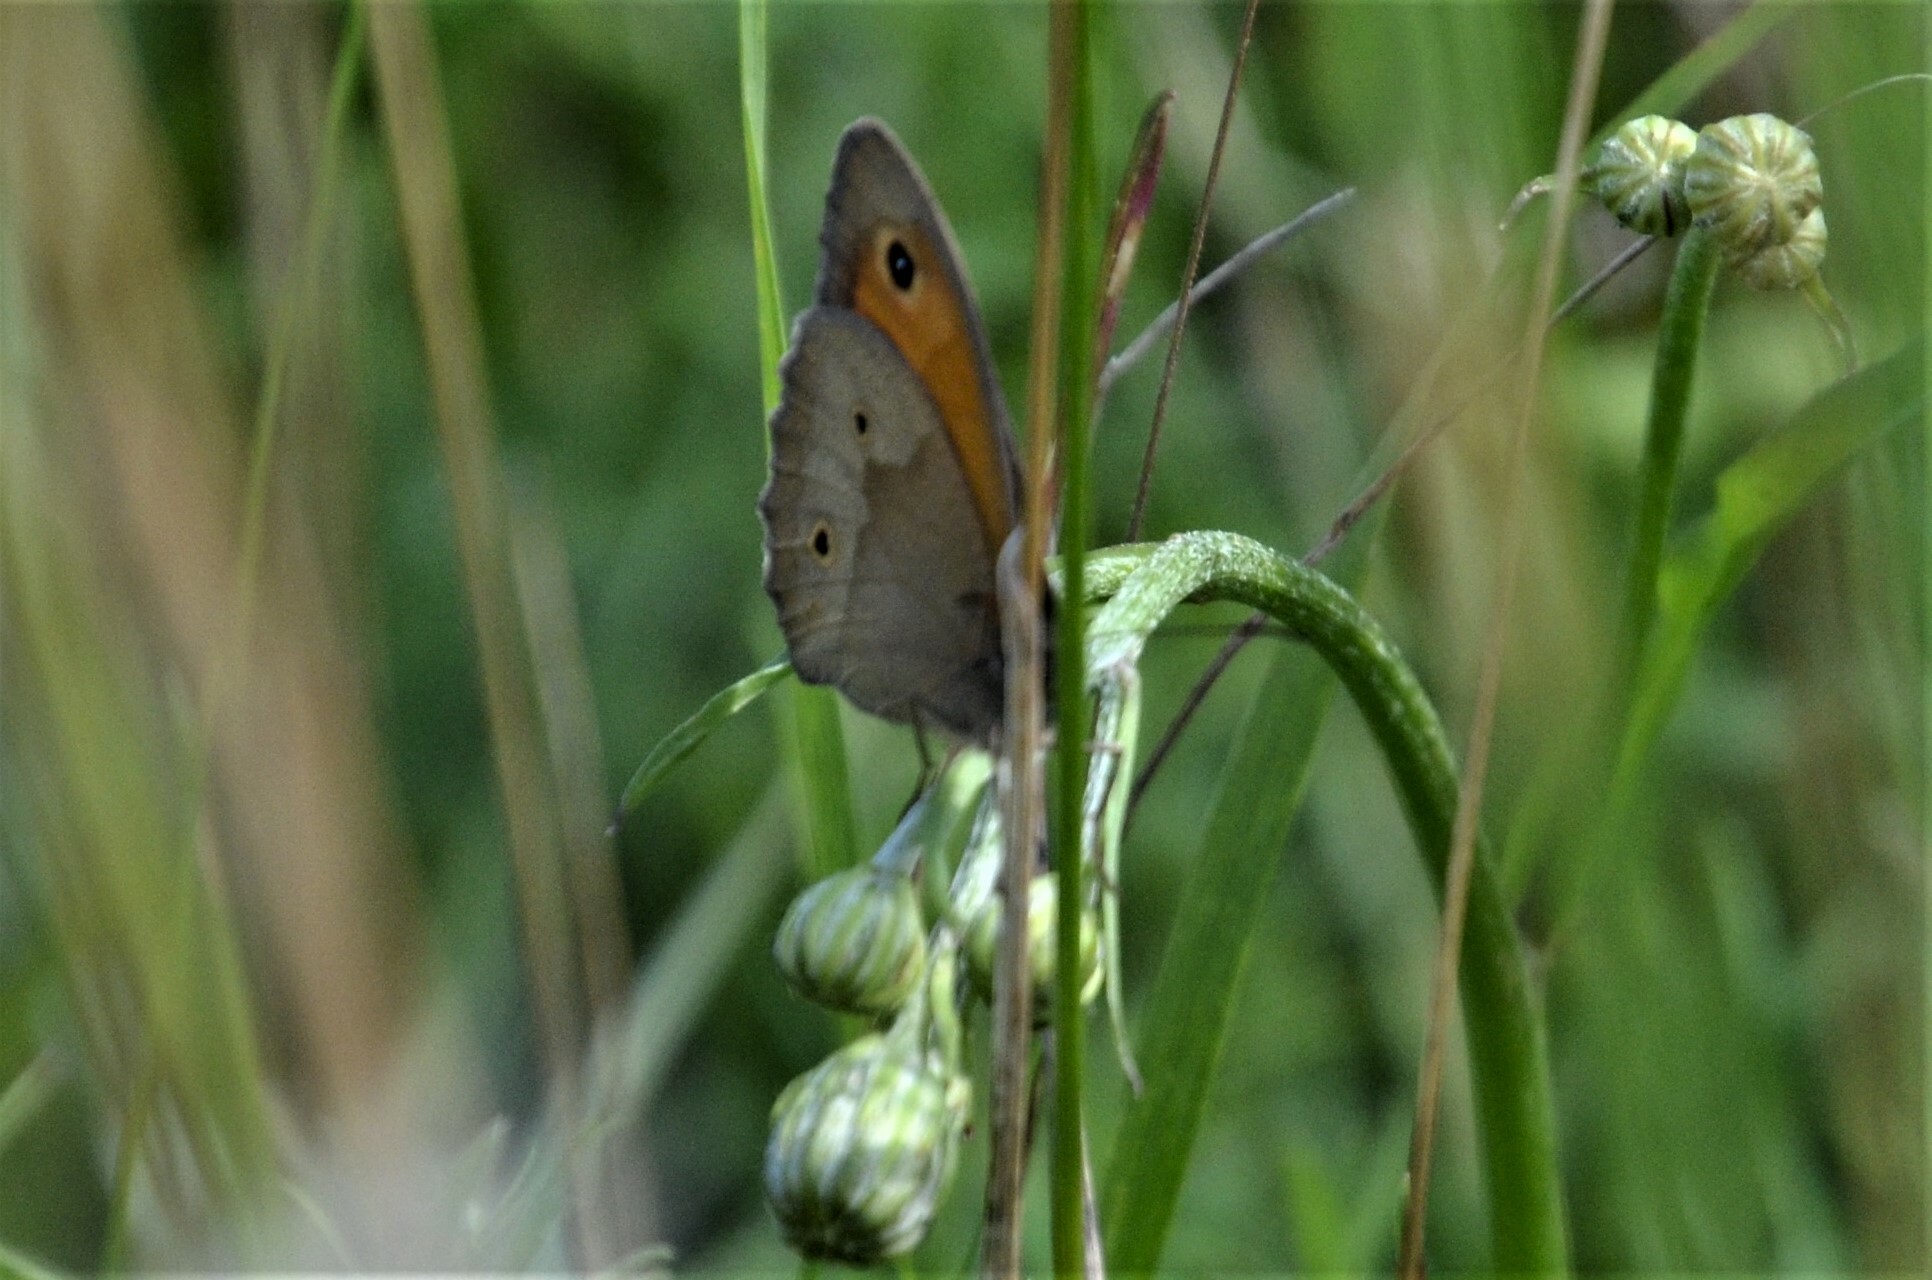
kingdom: Animalia
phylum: Arthropoda
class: Insecta
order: Lepidoptera
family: Nymphalidae
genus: Maniola
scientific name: Maniola jurtina
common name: Meadow brown
